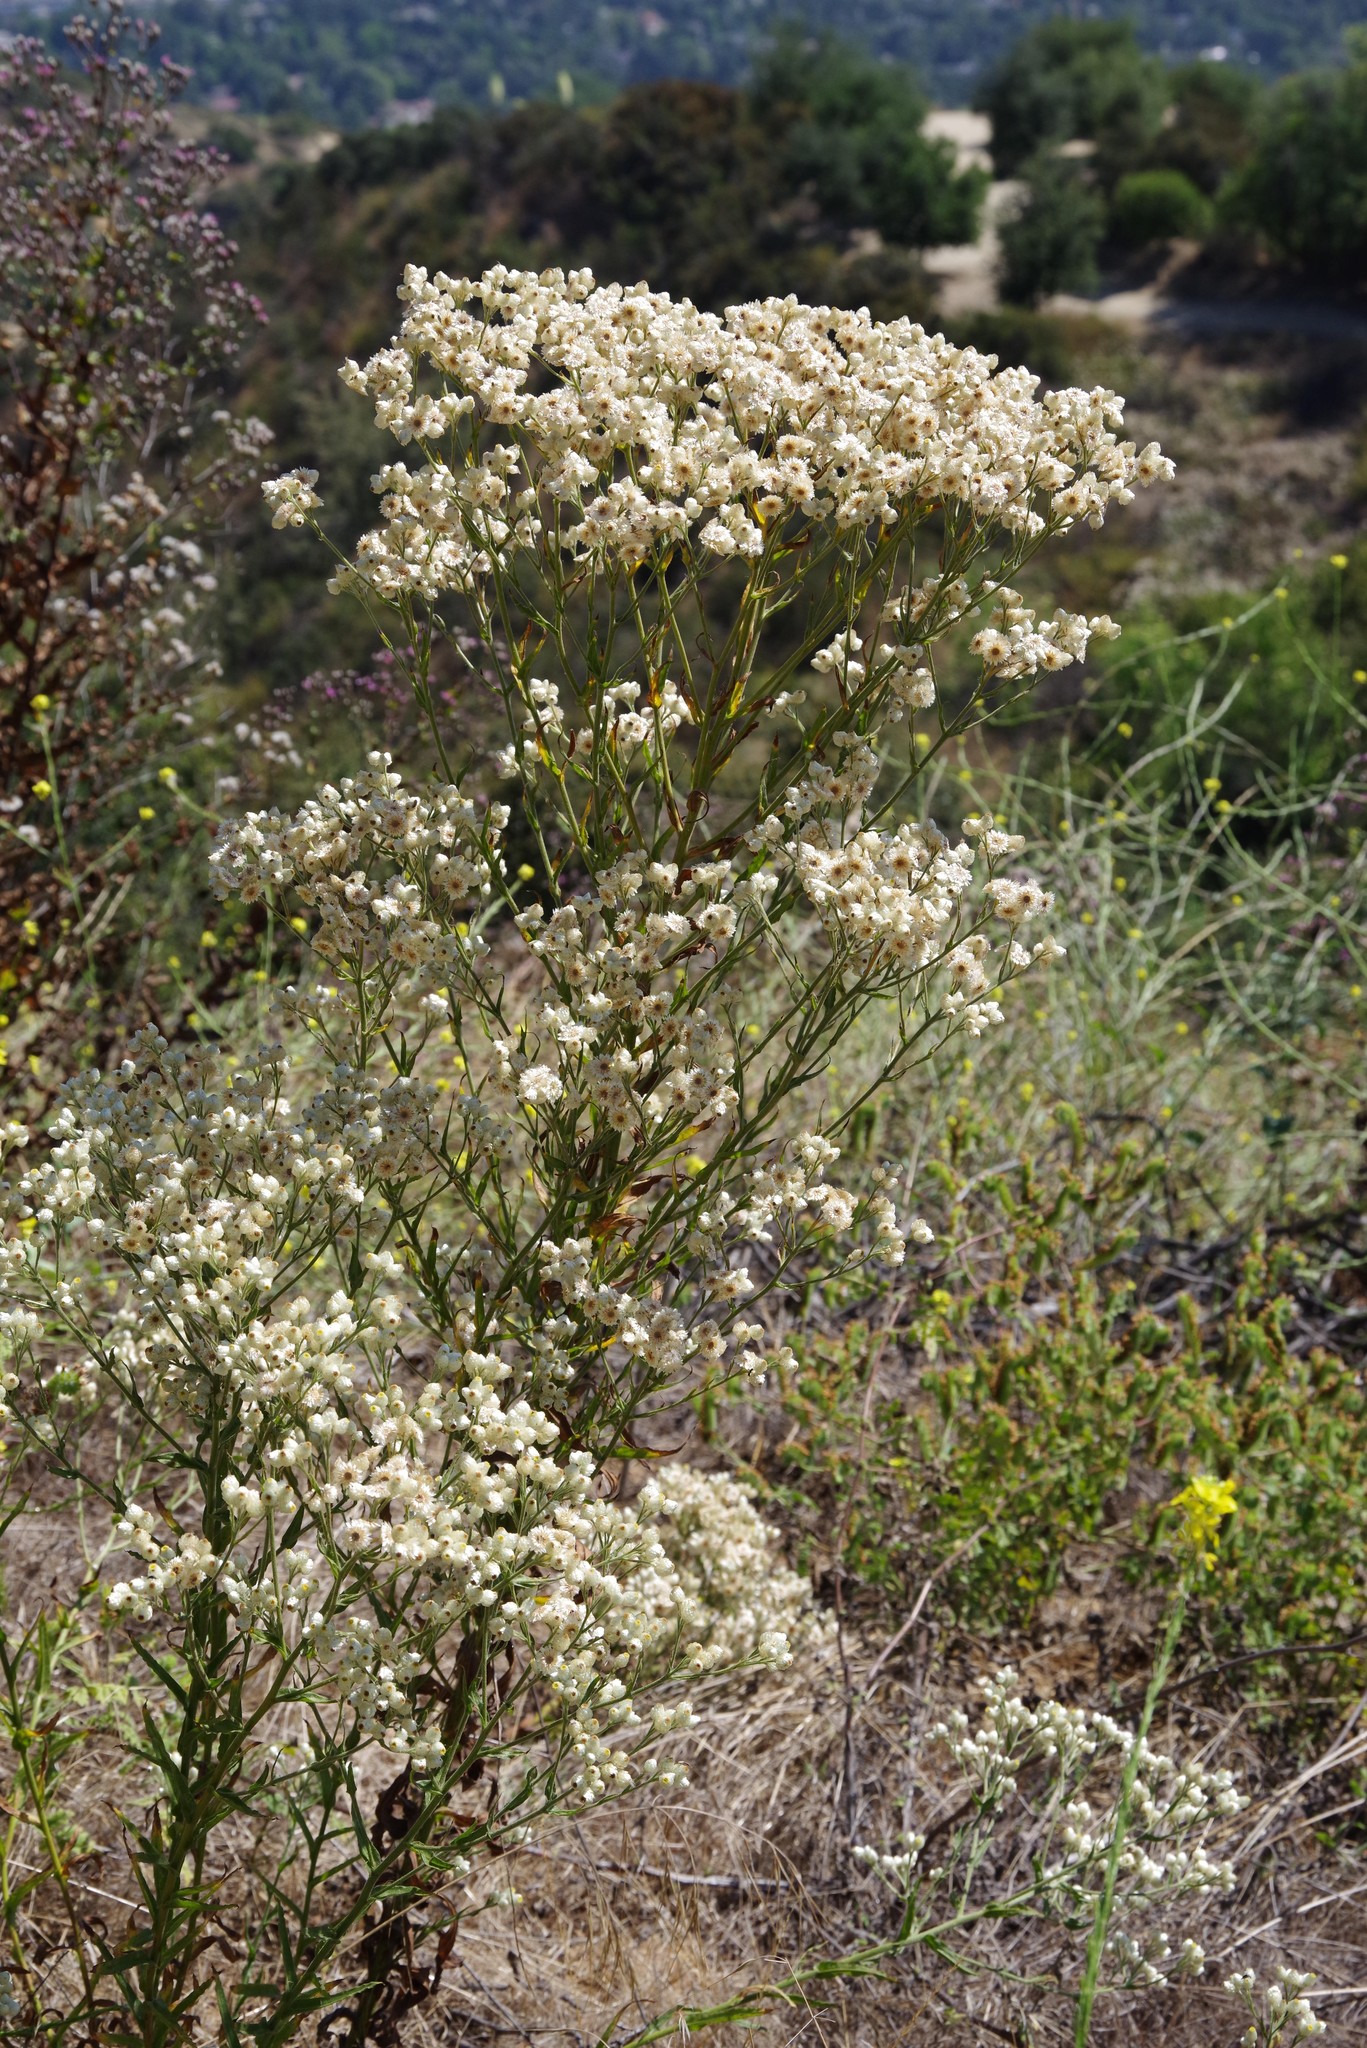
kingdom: Plantae
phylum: Tracheophyta
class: Magnoliopsida
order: Asterales
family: Asteraceae
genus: Pseudognaphalium
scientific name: Pseudognaphalium californicum
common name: California rabbit-tobacco
